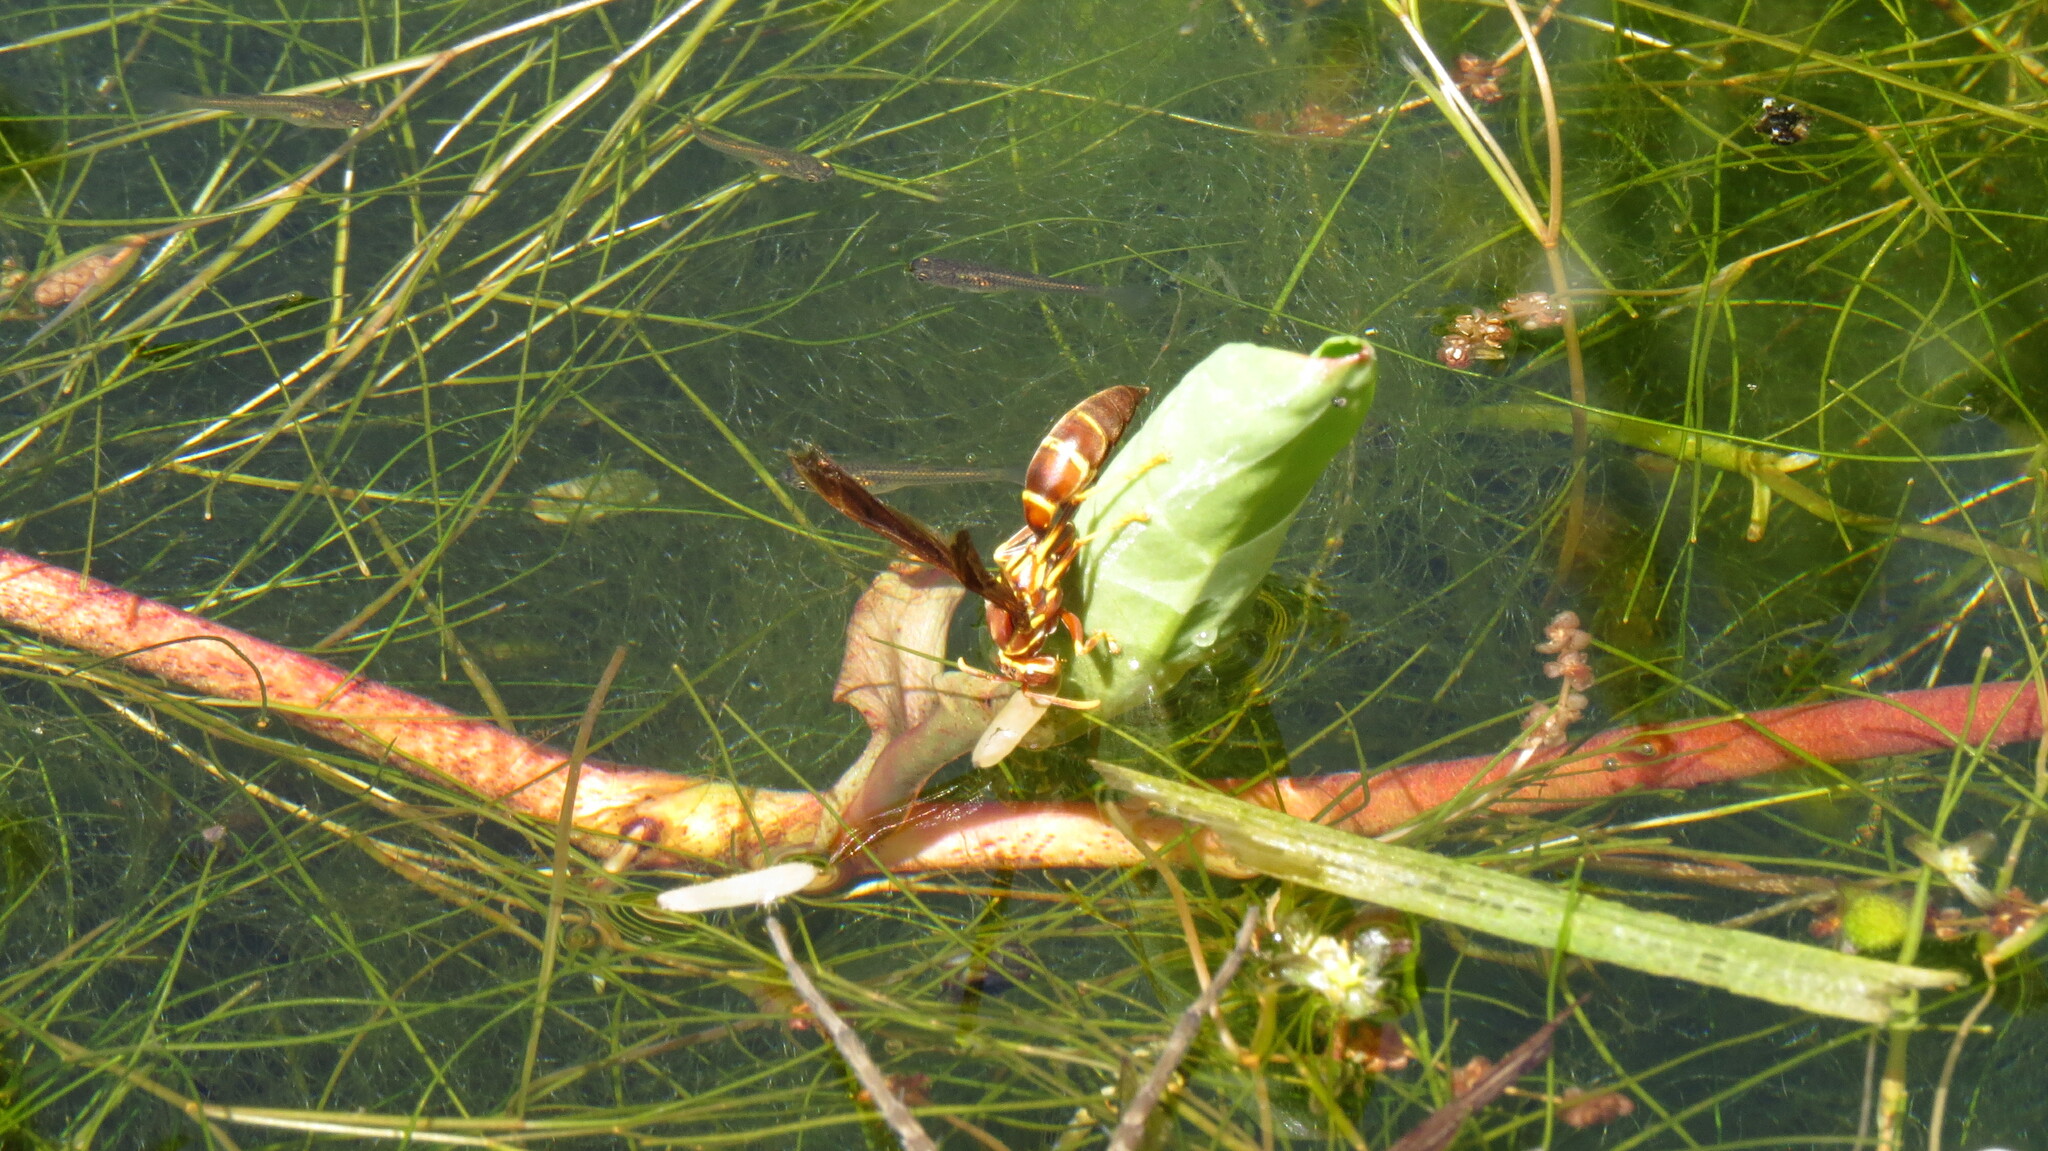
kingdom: Animalia
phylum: Arthropoda
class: Insecta
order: Hymenoptera
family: Eumenidae
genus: Polistes
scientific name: Polistes arizonensis
